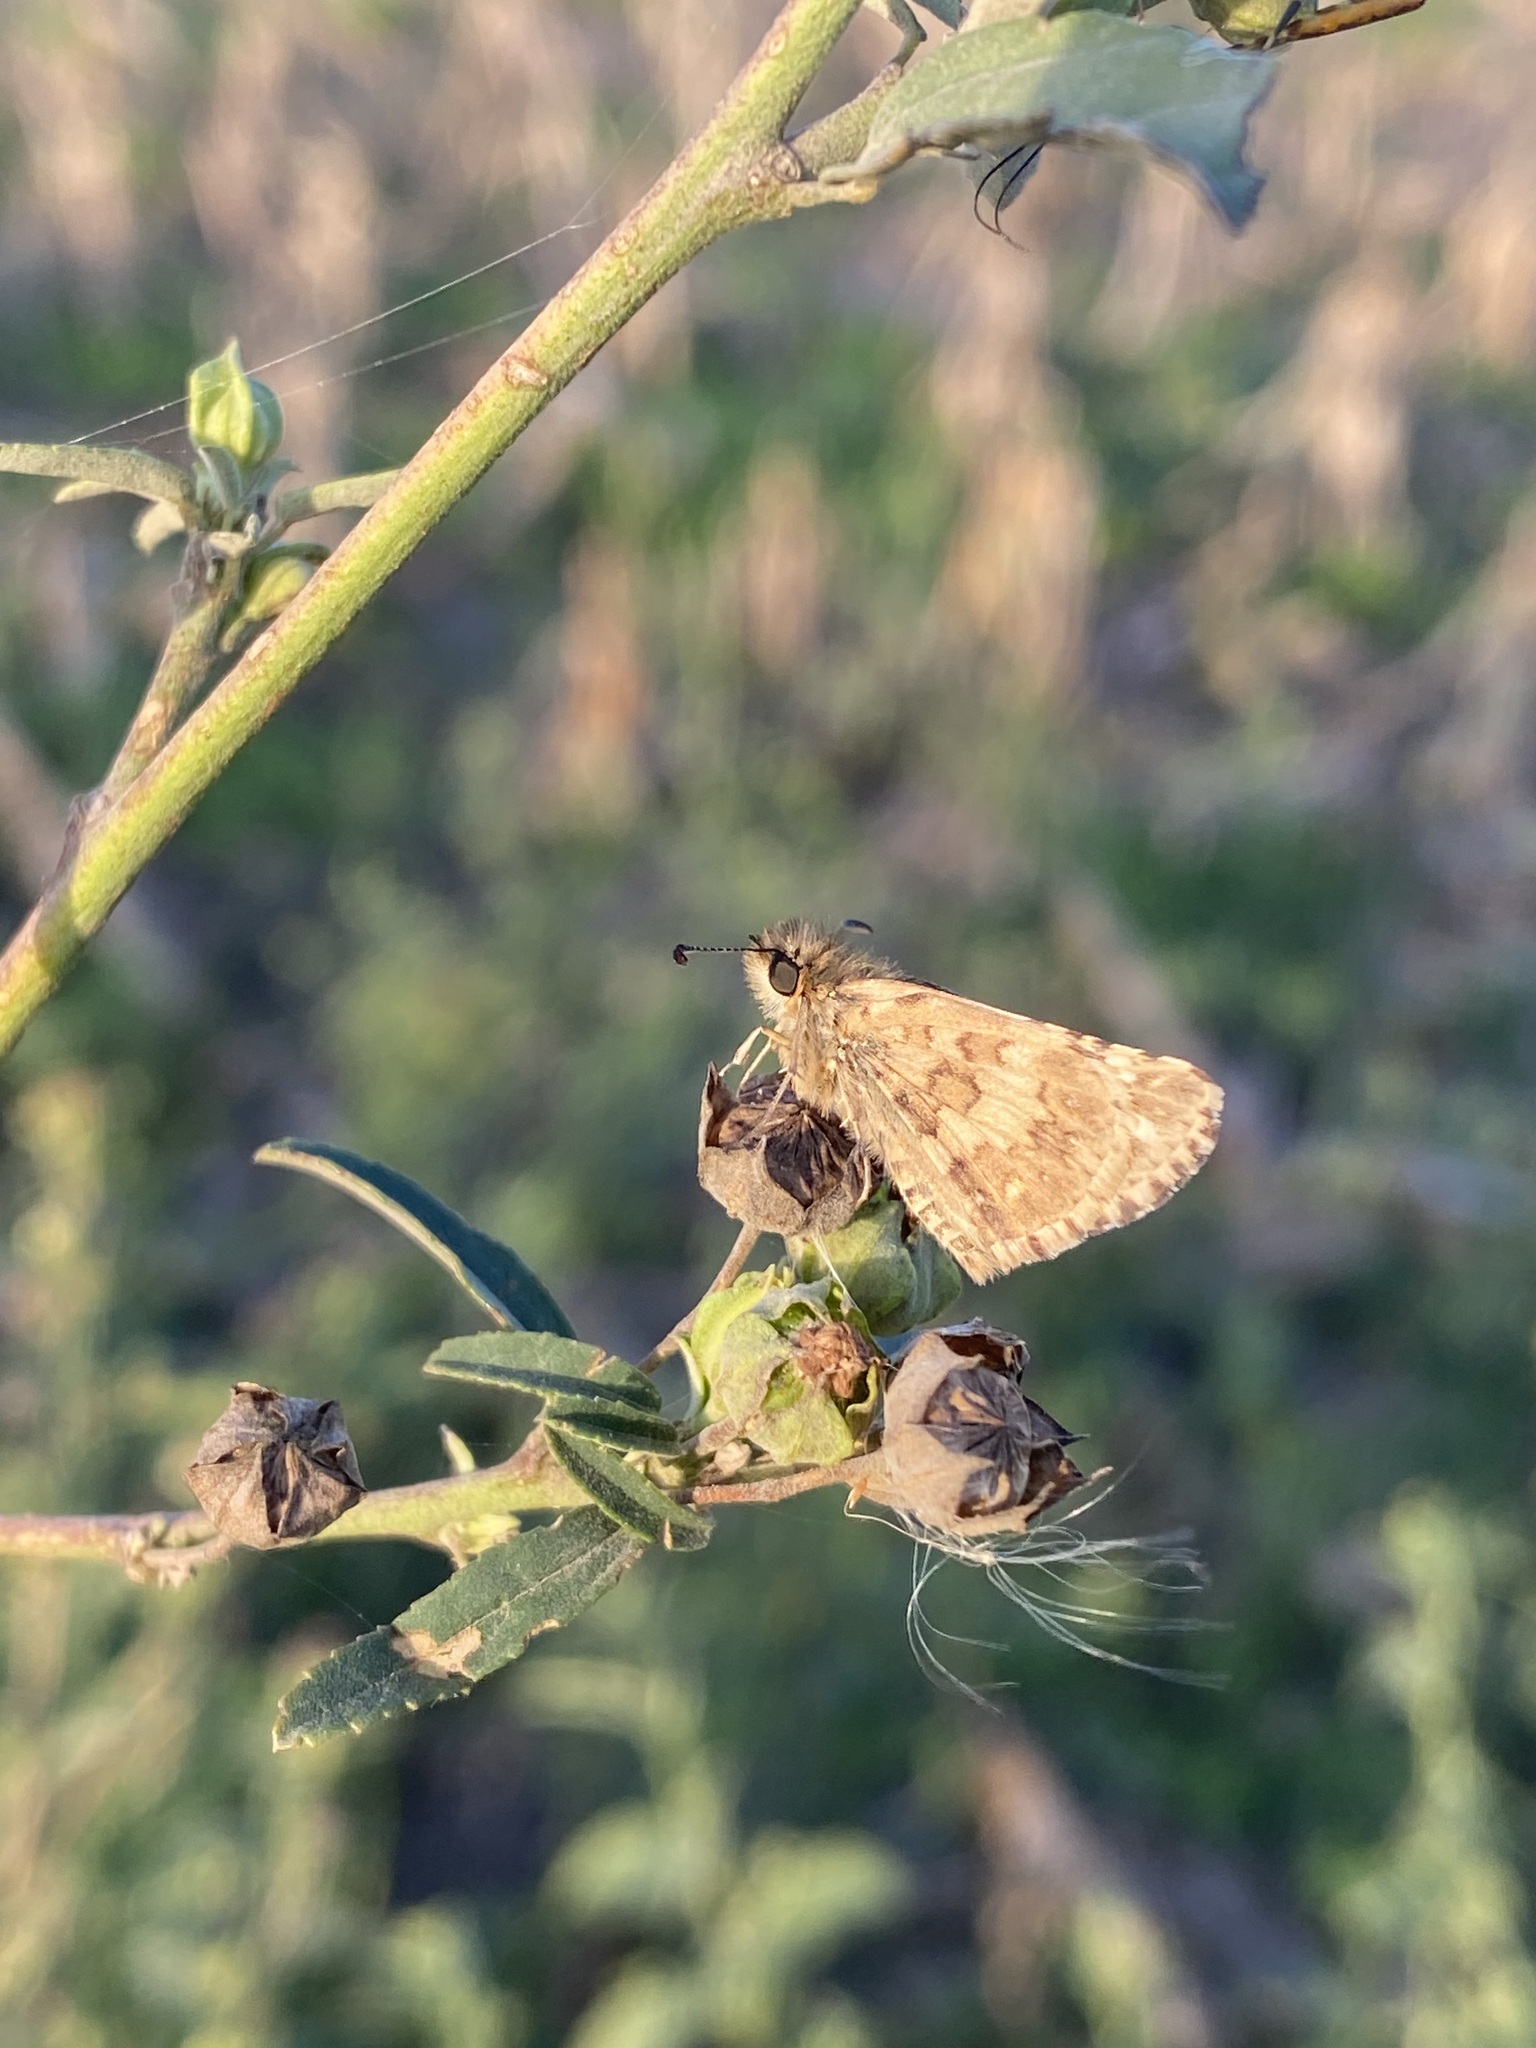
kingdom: Animalia
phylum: Arthropoda
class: Insecta
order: Lepidoptera
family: Hesperiidae
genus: Burnsius
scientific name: Burnsius orcynoides
